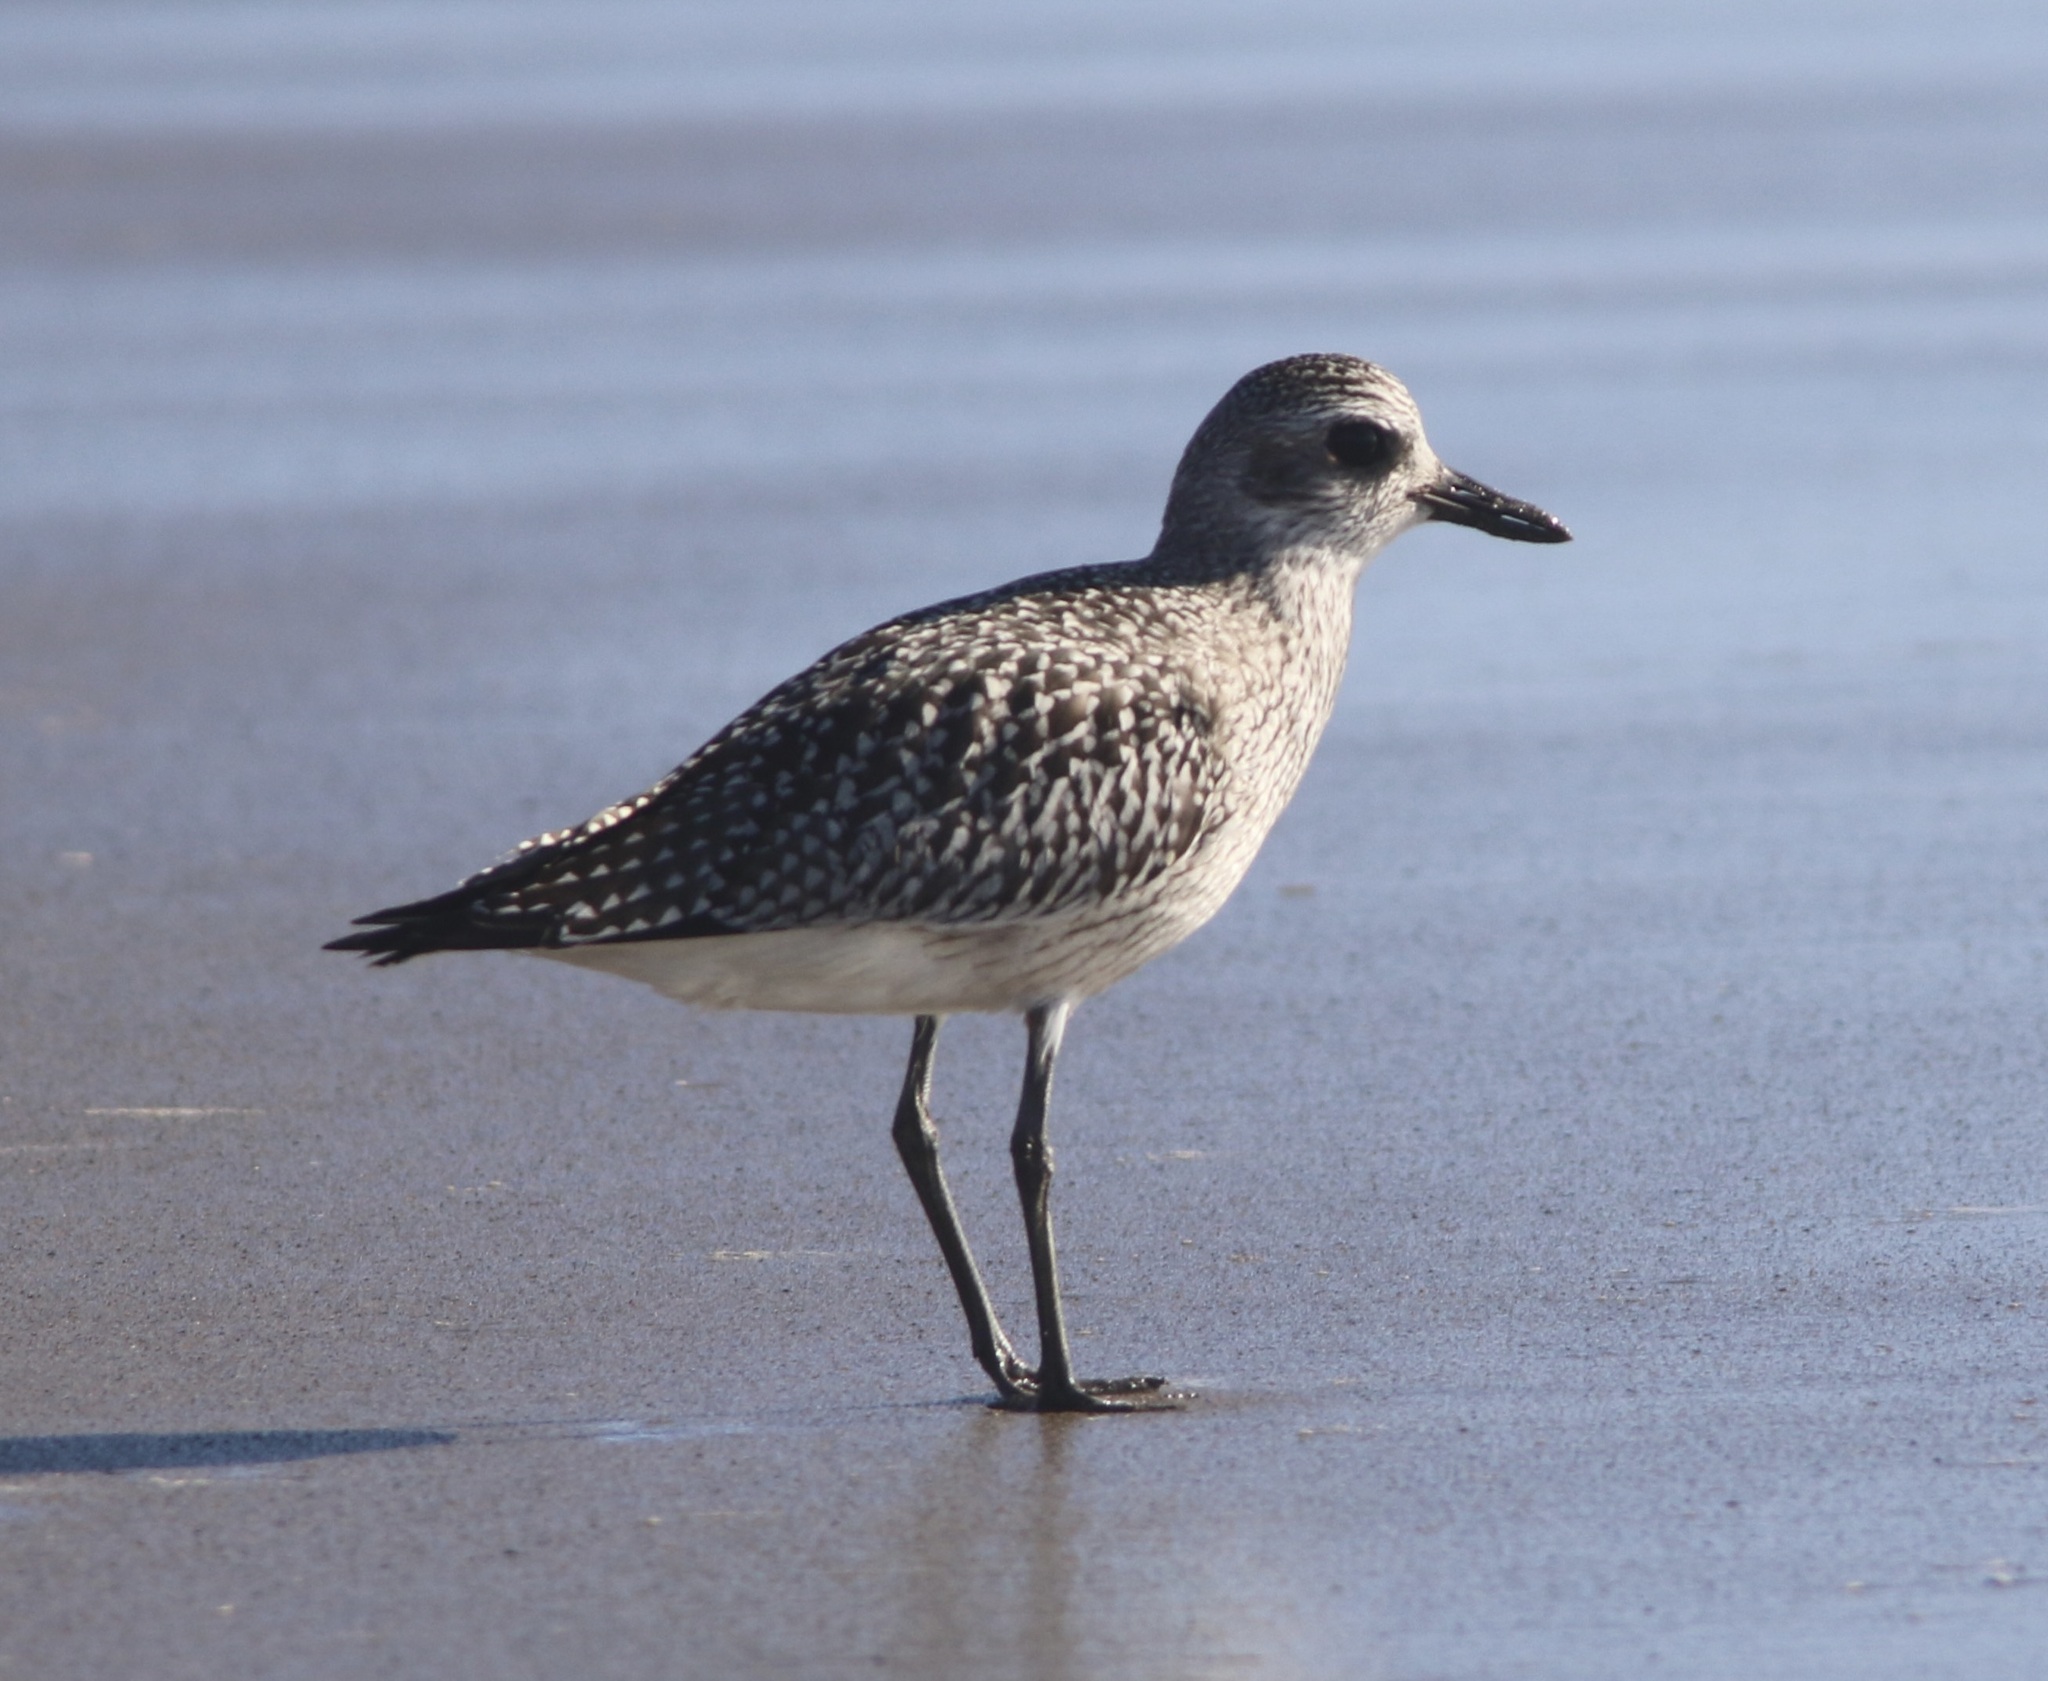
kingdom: Animalia
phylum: Chordata
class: Aves
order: Charadriiformes
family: Charadriidae
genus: Pluvialis
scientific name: Pluvialis squatarola
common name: Grey plover
